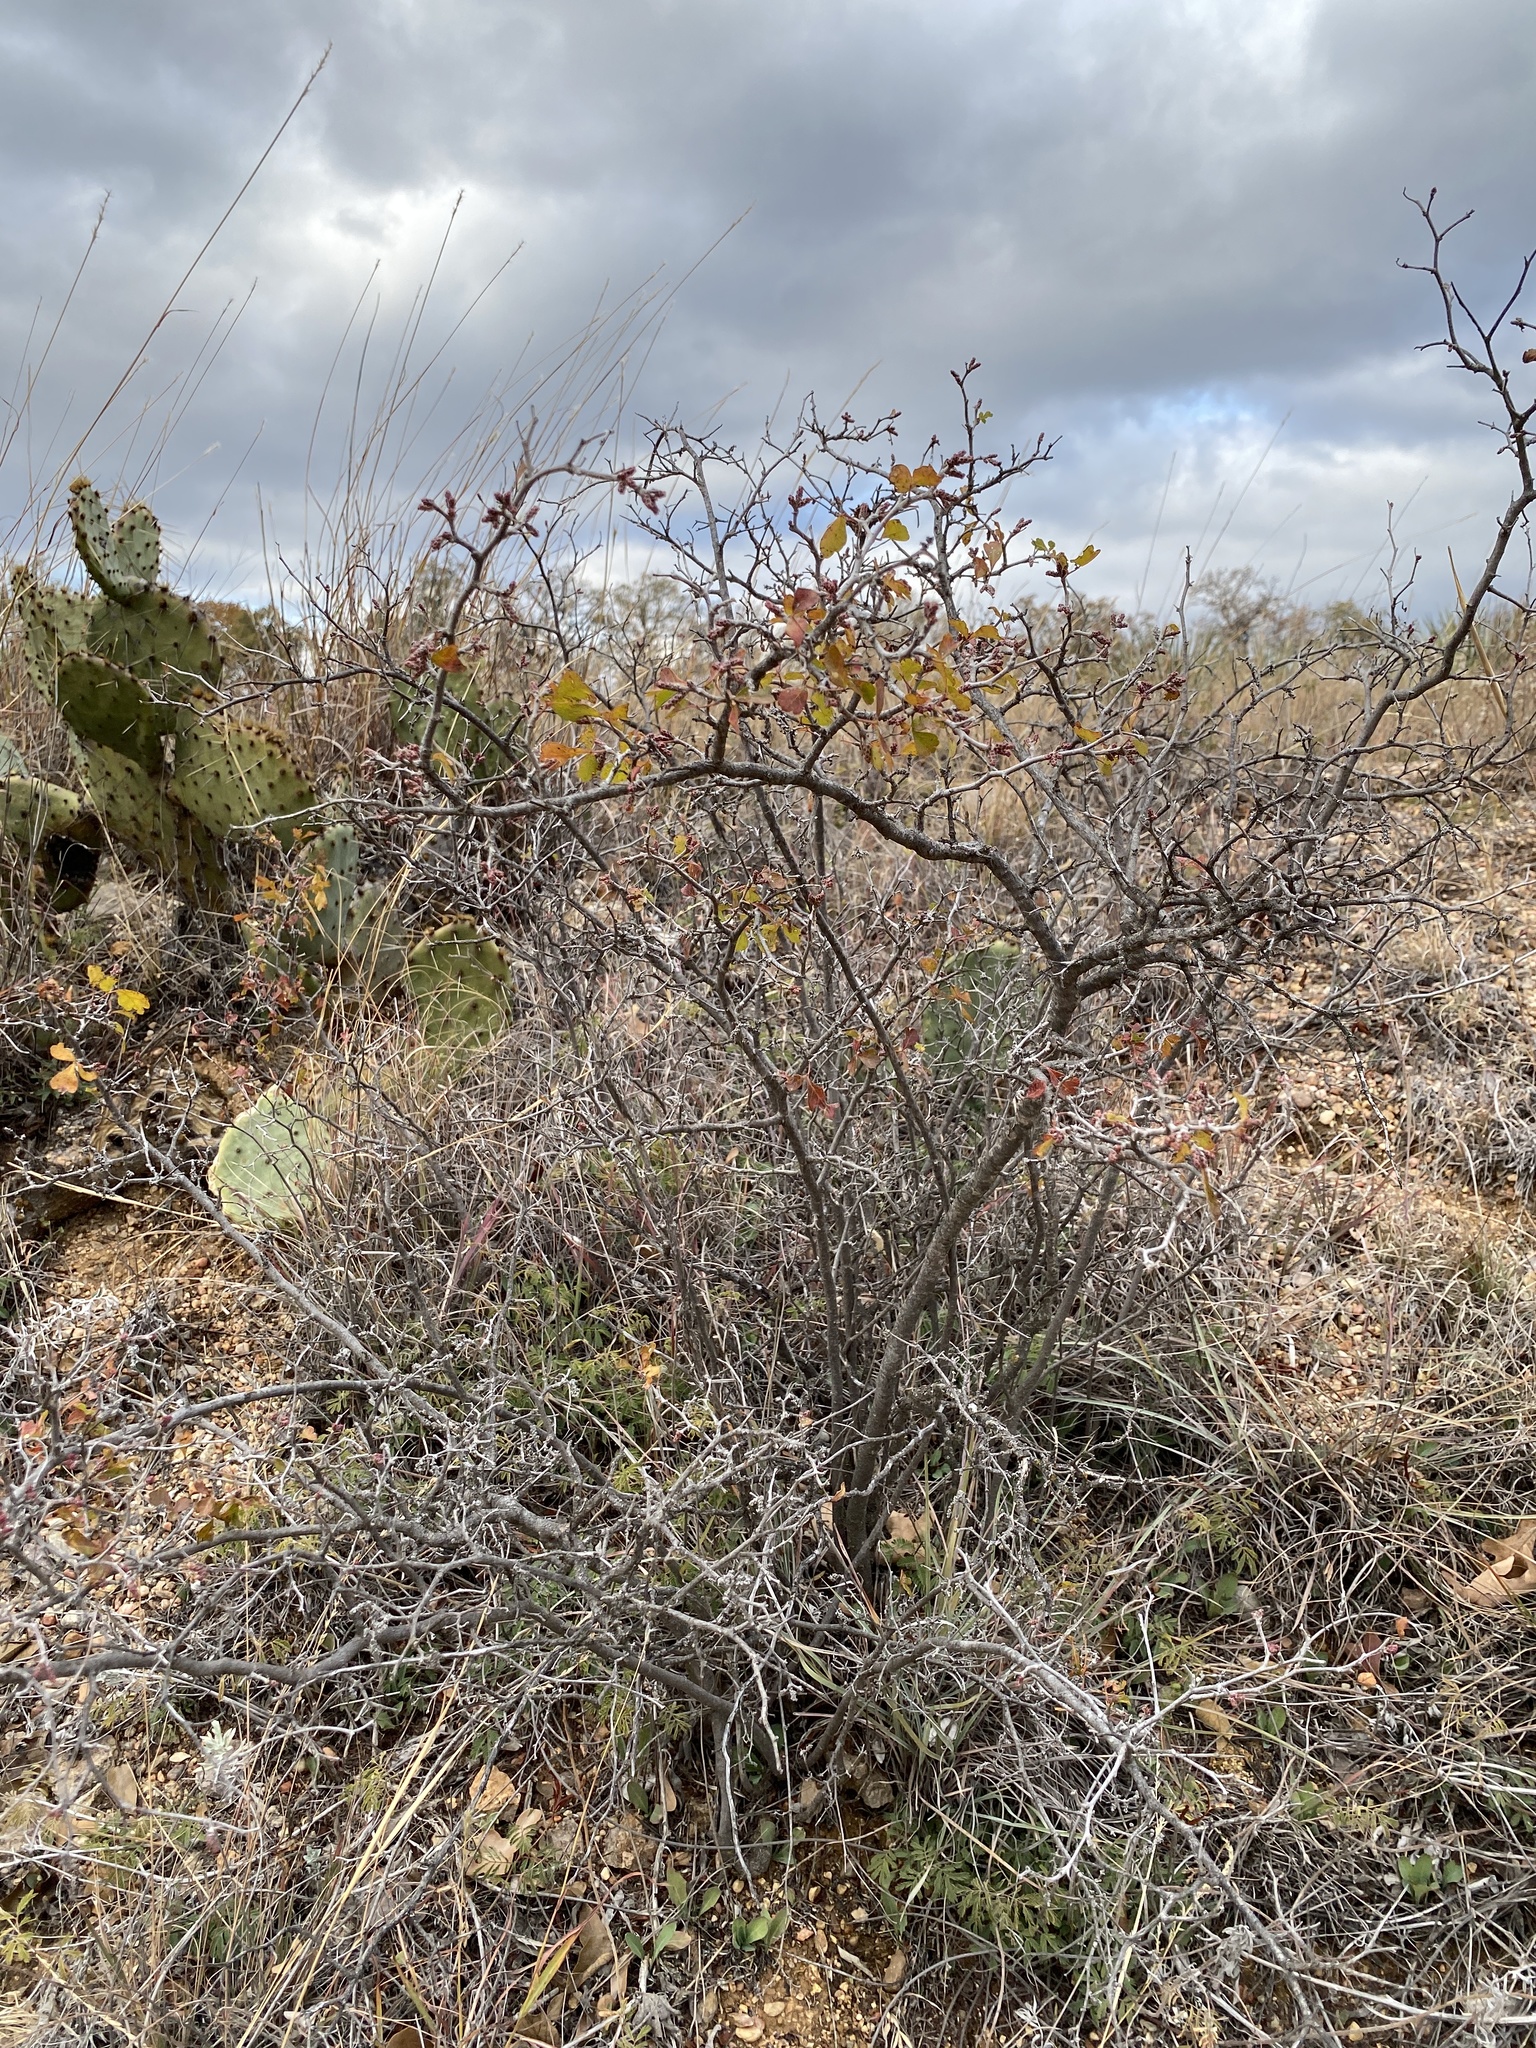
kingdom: Plantae
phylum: Tracheophyta
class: Magnoliopsida
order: Sapindales
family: Anacardiaceae
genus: Rhus
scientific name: Rhus aromatica
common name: Aromatic sumac
